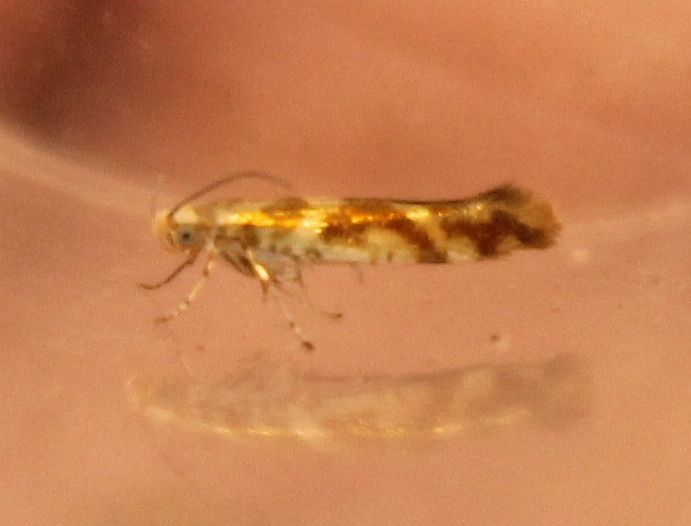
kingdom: Animalia
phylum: Arthropoda
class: Insecta
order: Lepidoptera
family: Argyresthiidae
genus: Argyresthia
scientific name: Argyresthia goedartella
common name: Golden argent
